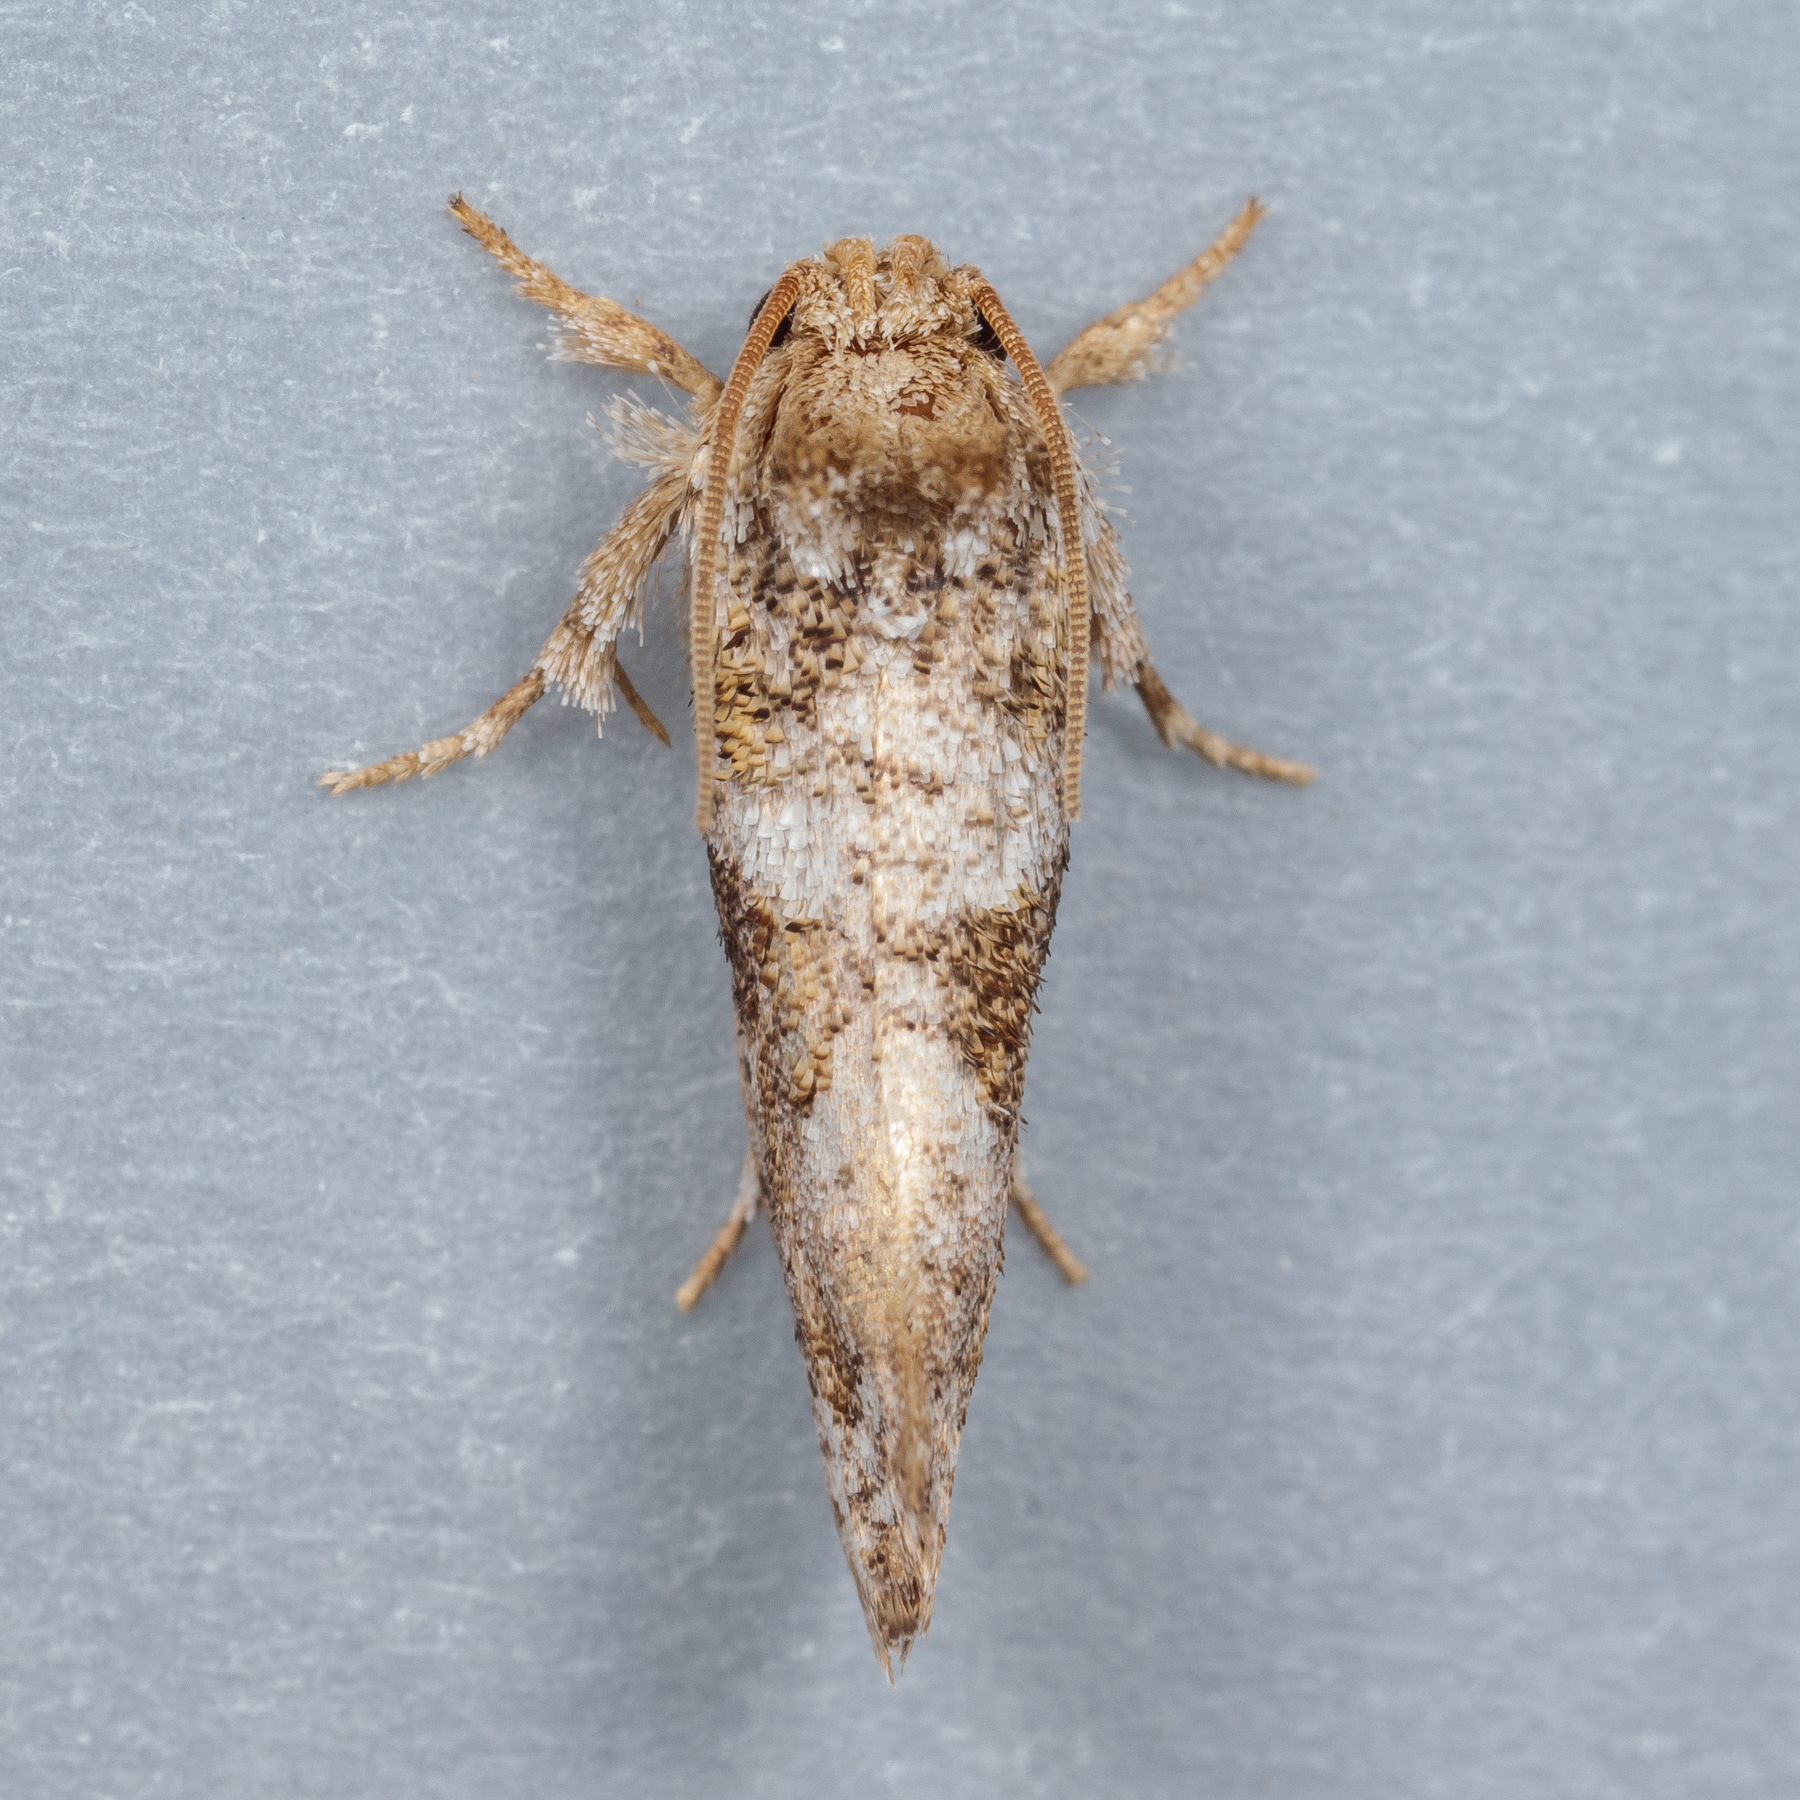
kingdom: Animalia
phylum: Arthropoda
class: Insecta
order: Lepidoptera
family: Tineidae
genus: Acrolophus
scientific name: Acrolophus piger
